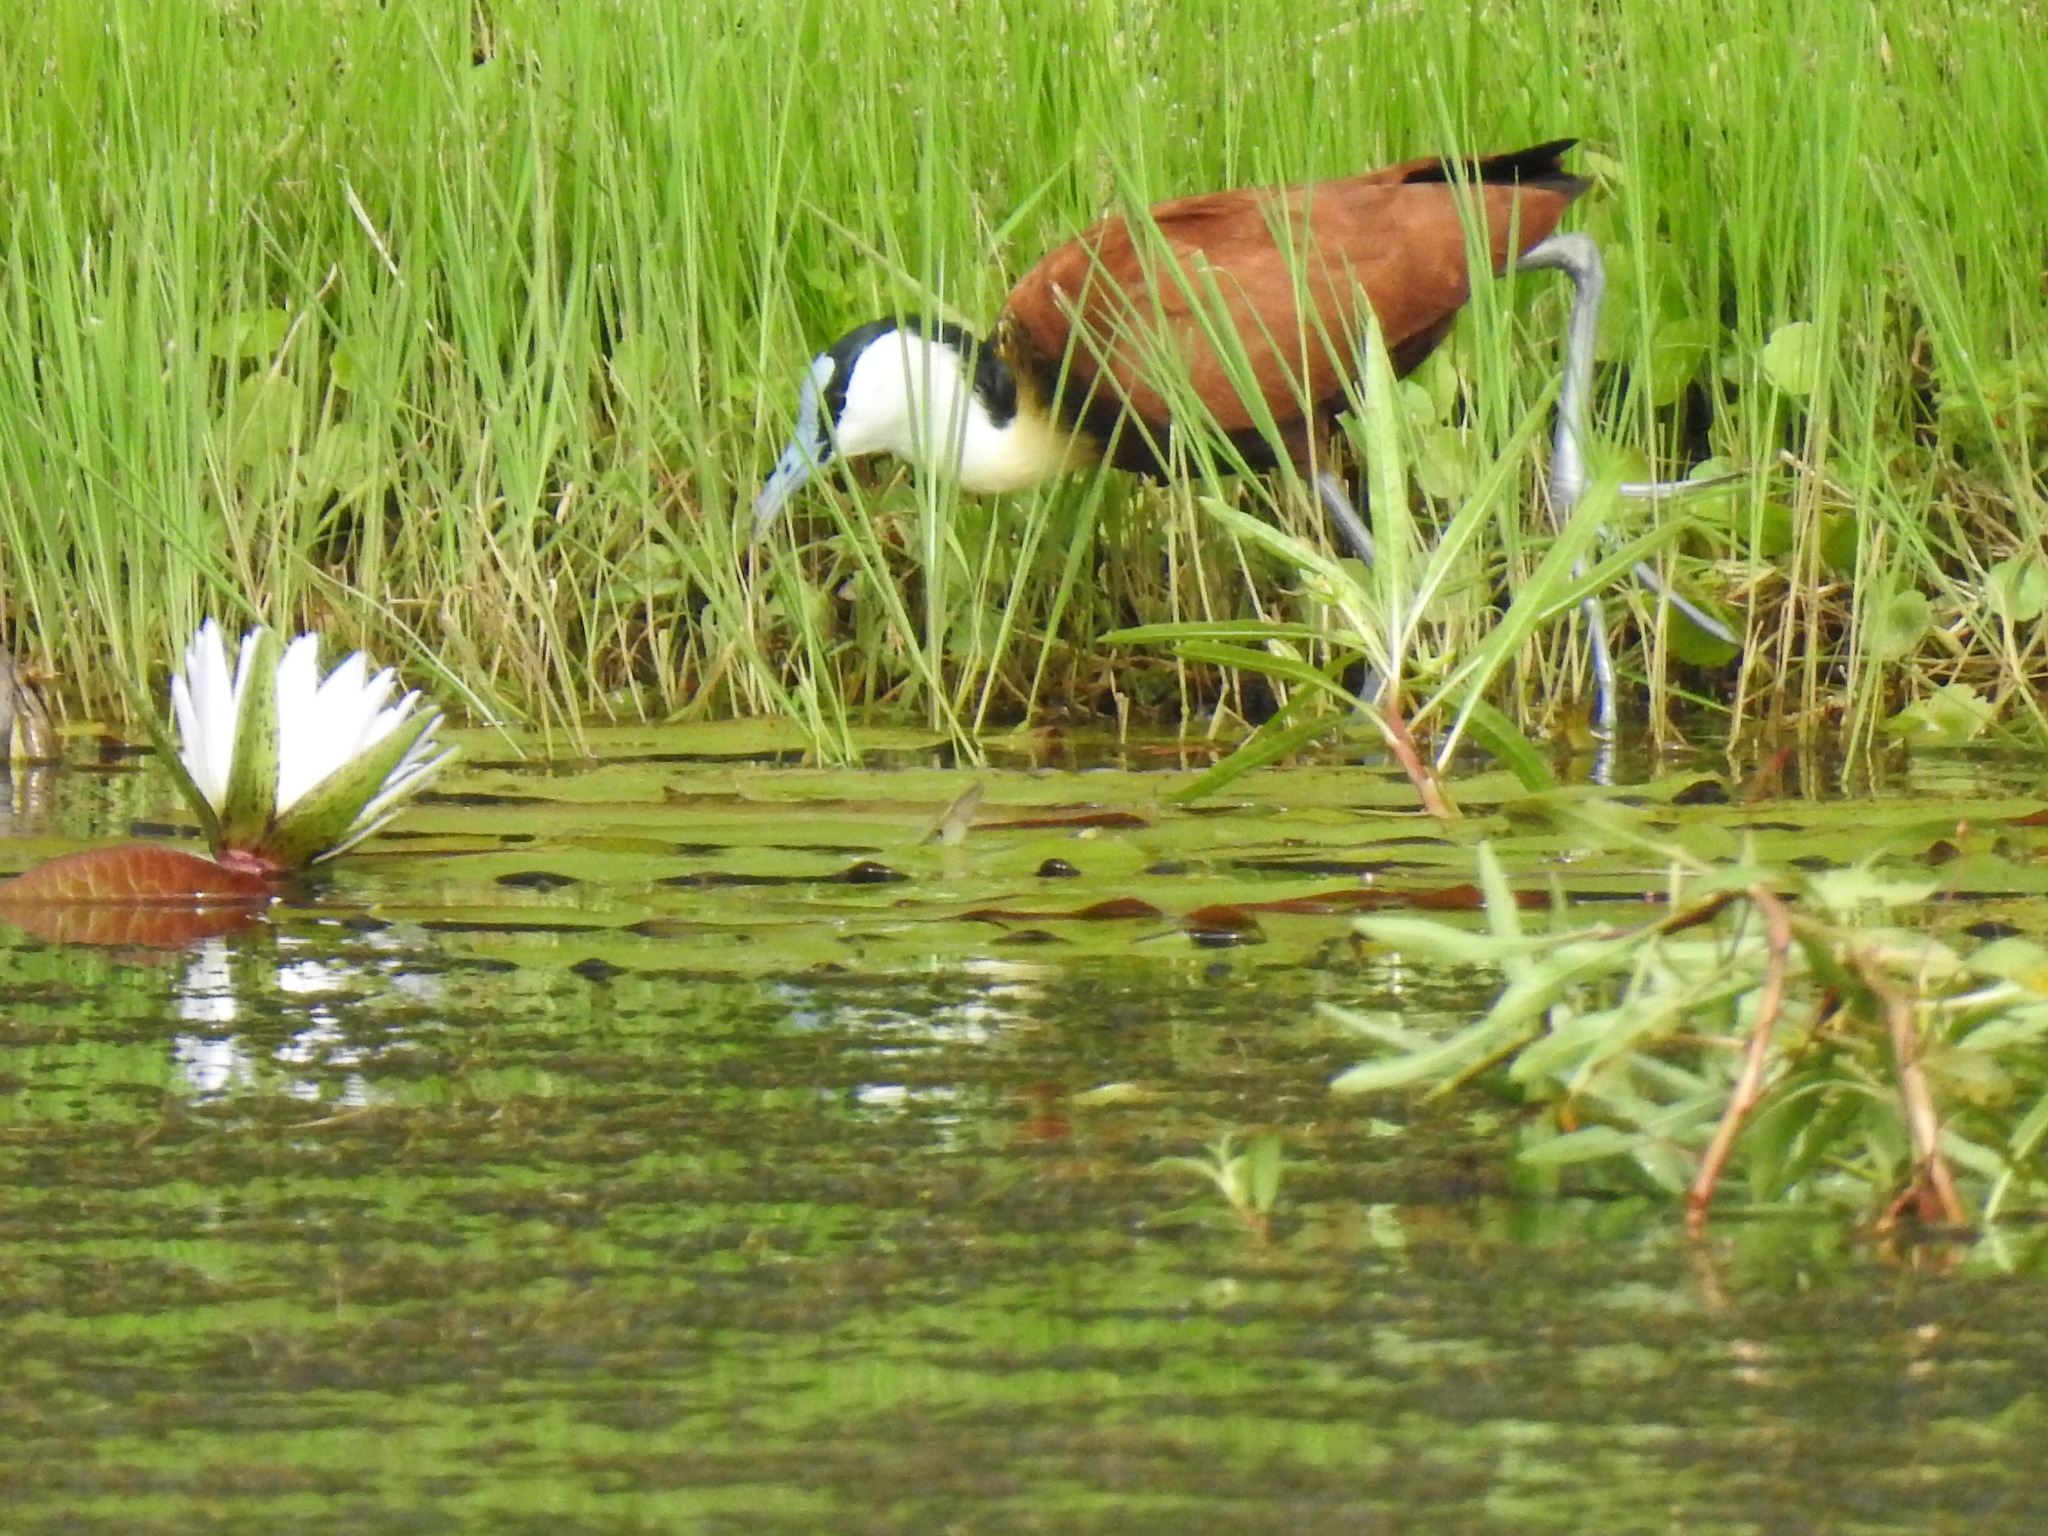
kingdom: Animalia
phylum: Chordata
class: Aves
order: Charadriiformes
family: Jacanidae
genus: Actophilornis
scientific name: Actophilornis africanus
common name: African jacana
